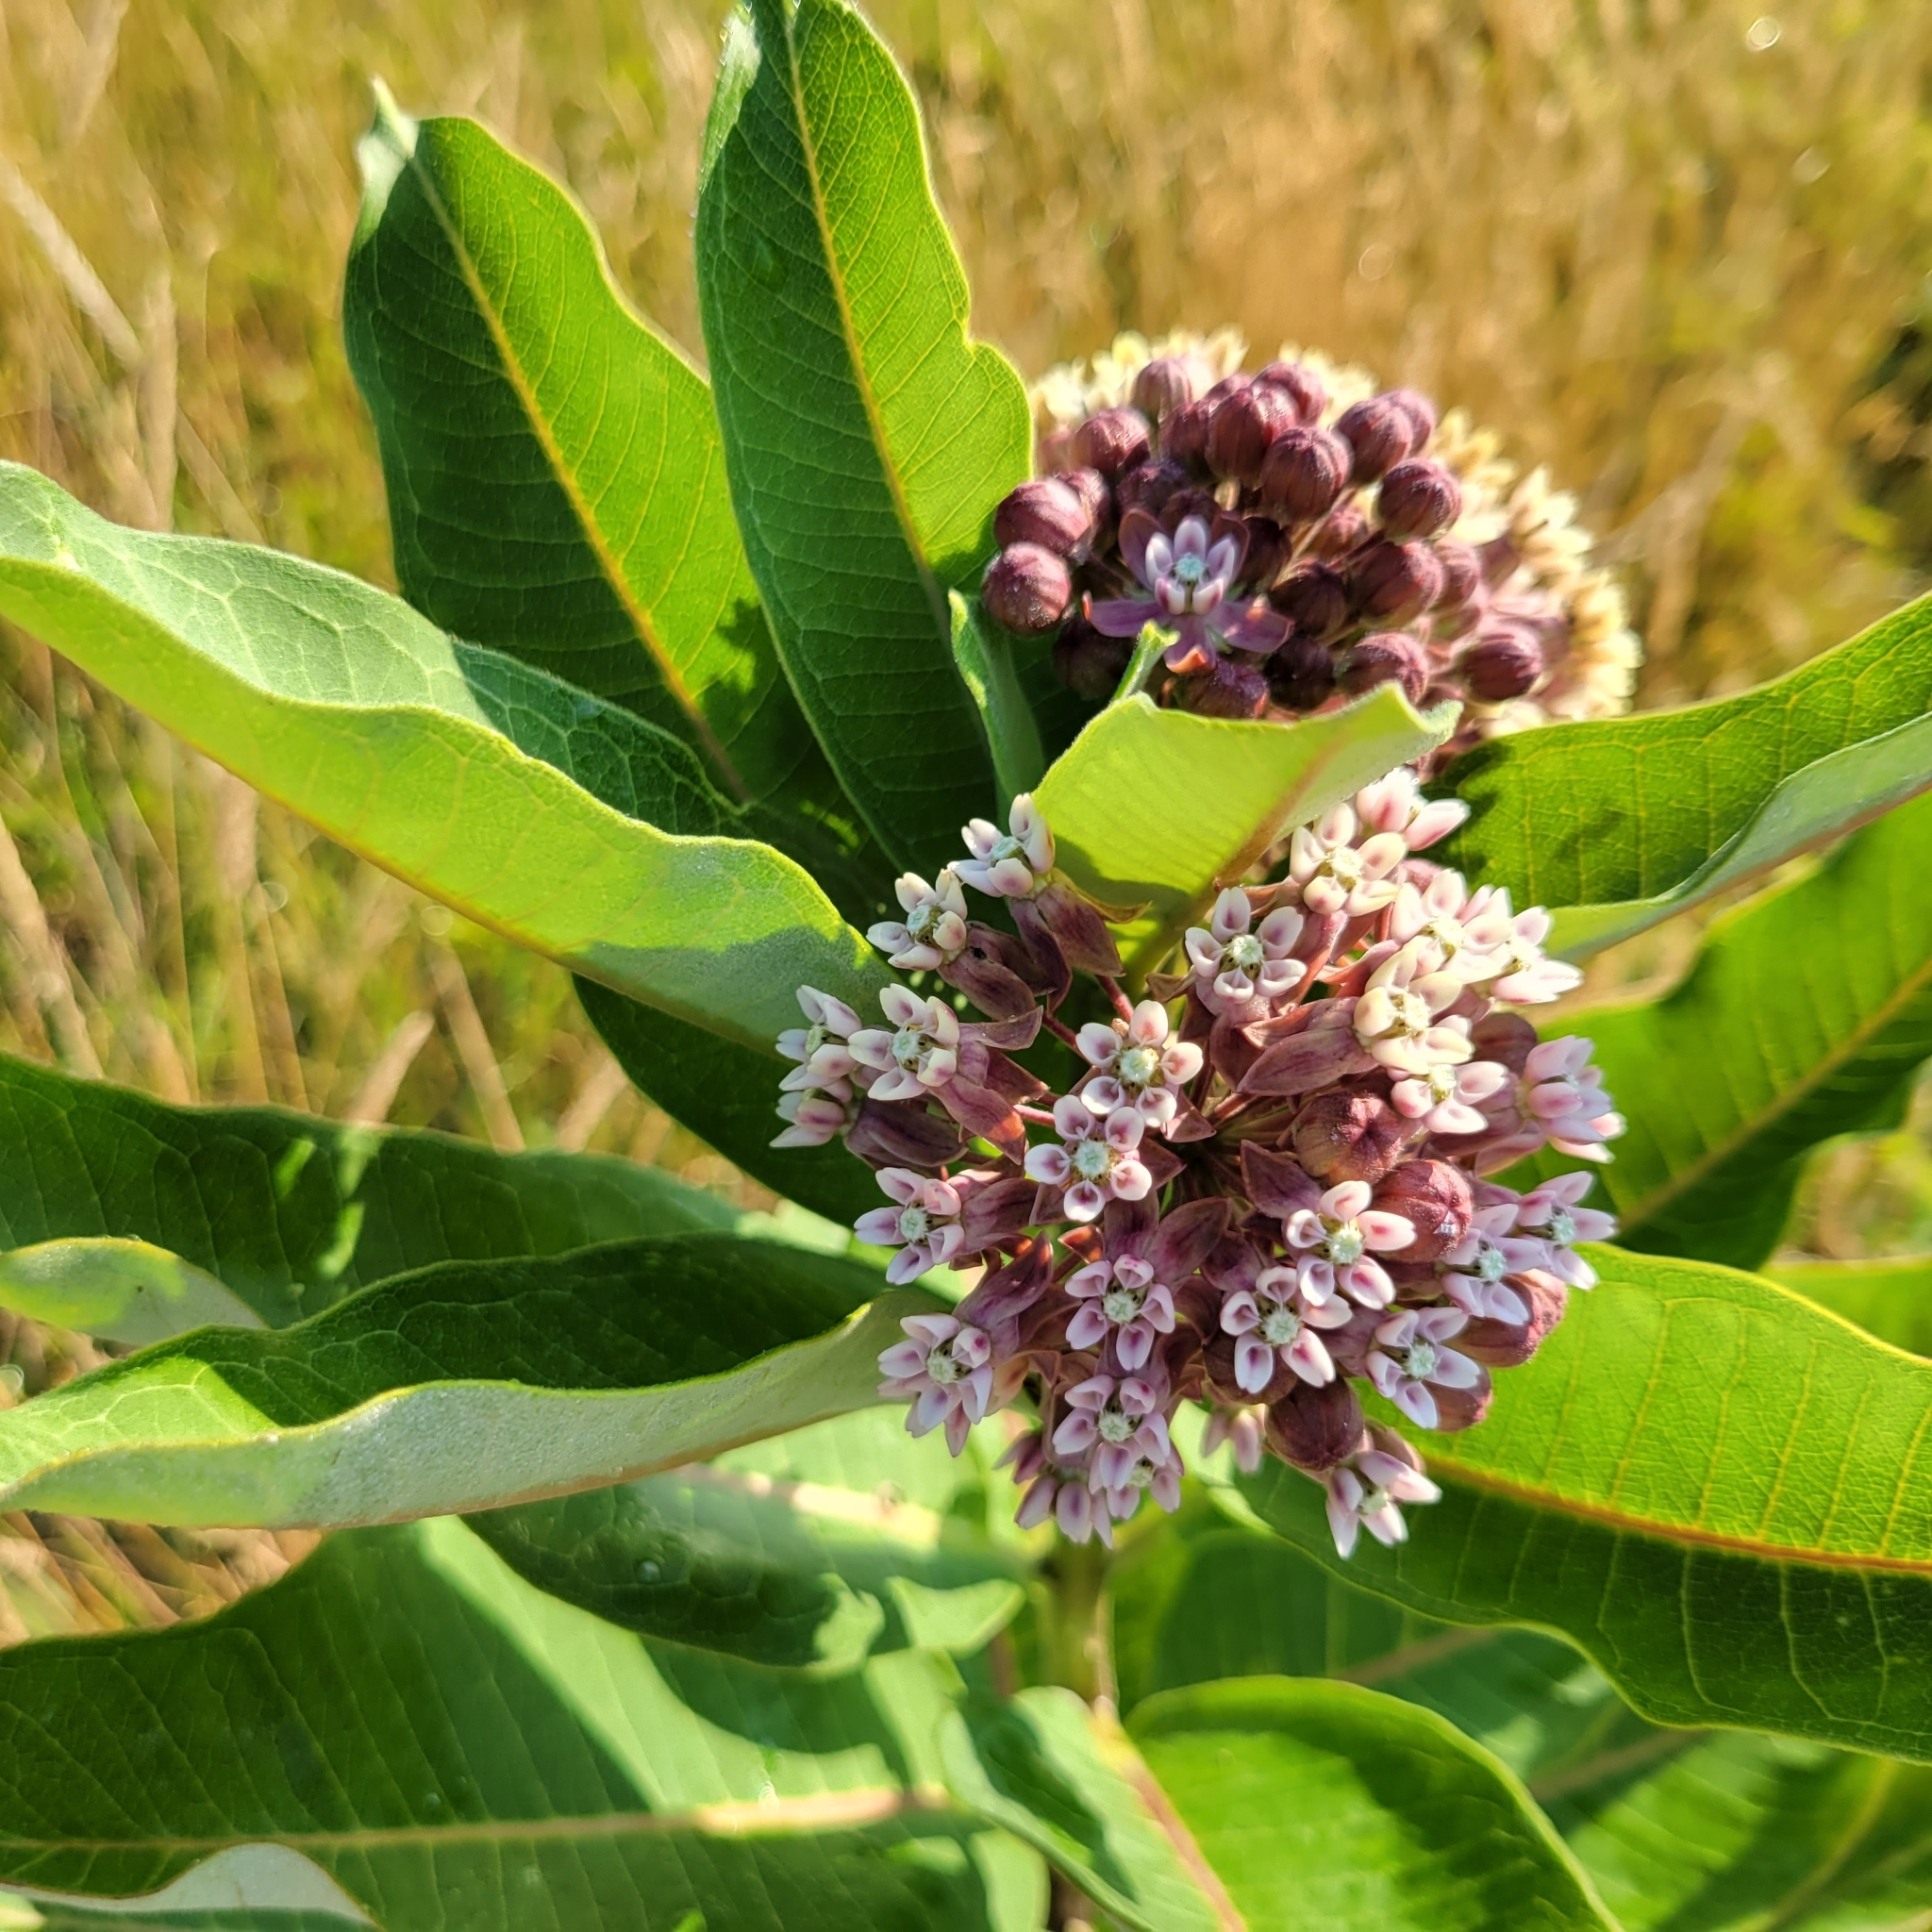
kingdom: Plantae
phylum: Tracheophyta
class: Magnoliopsida
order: Gentianales
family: Apocynaceae
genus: Asclepias
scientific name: Asclepias syriaca
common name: Common milkweed
